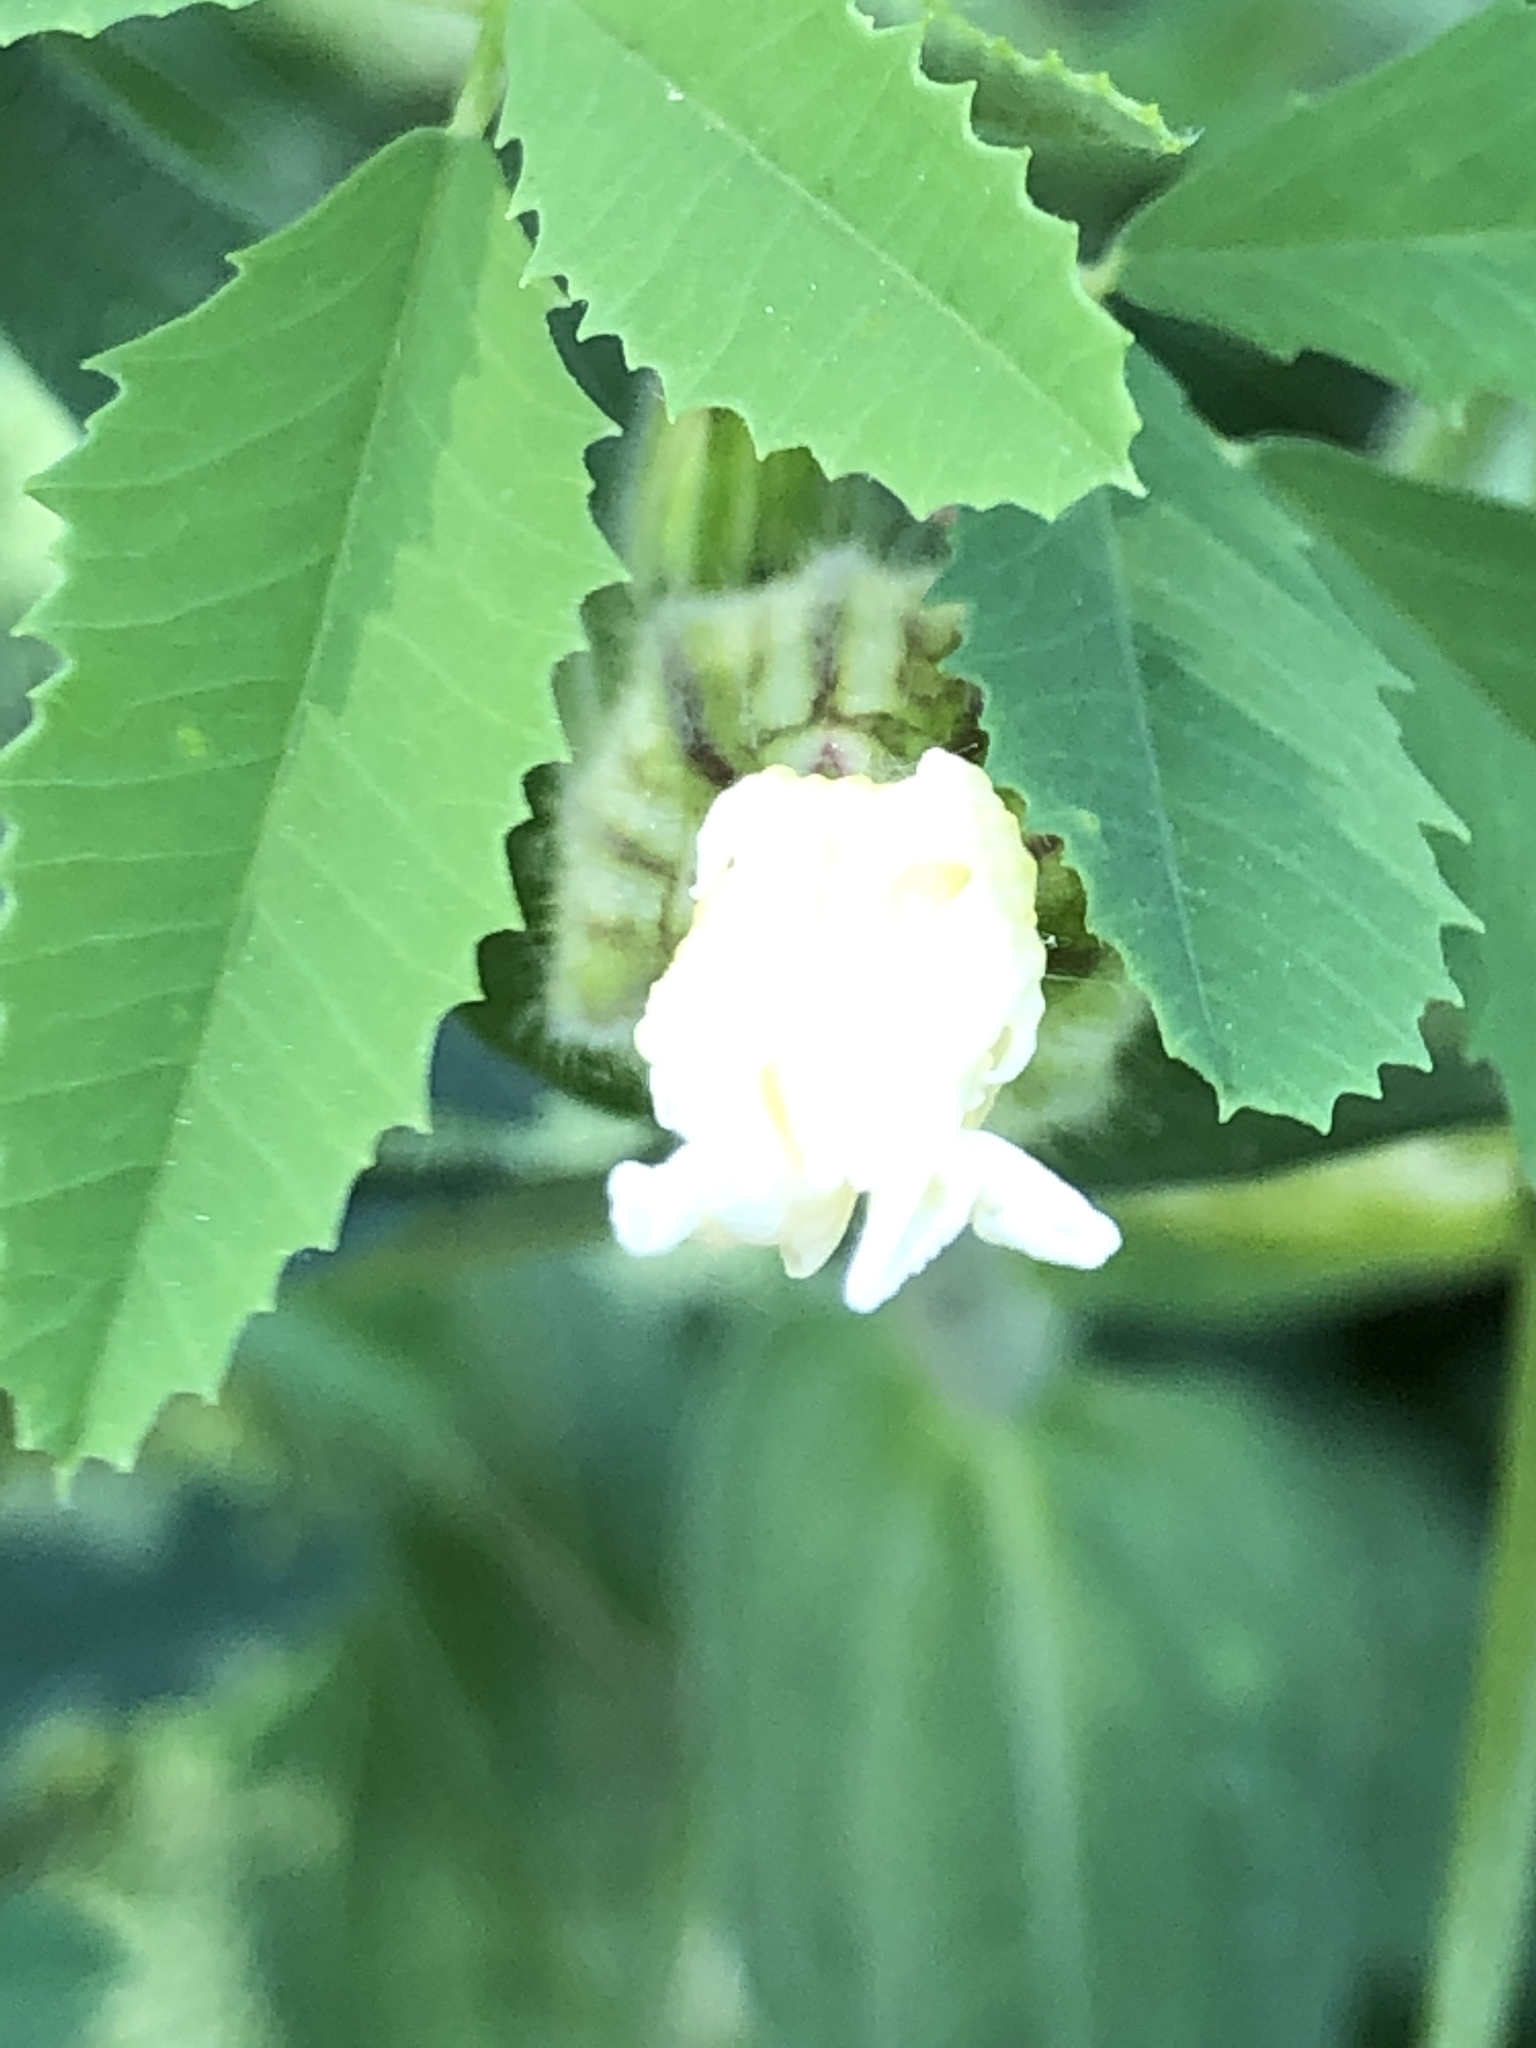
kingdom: Plantae
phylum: Tracheophyta
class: Magnoliopsida
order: Caryophyllales
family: Caryophyllaceae
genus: Silene
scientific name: Silene latifolia
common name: White campion
